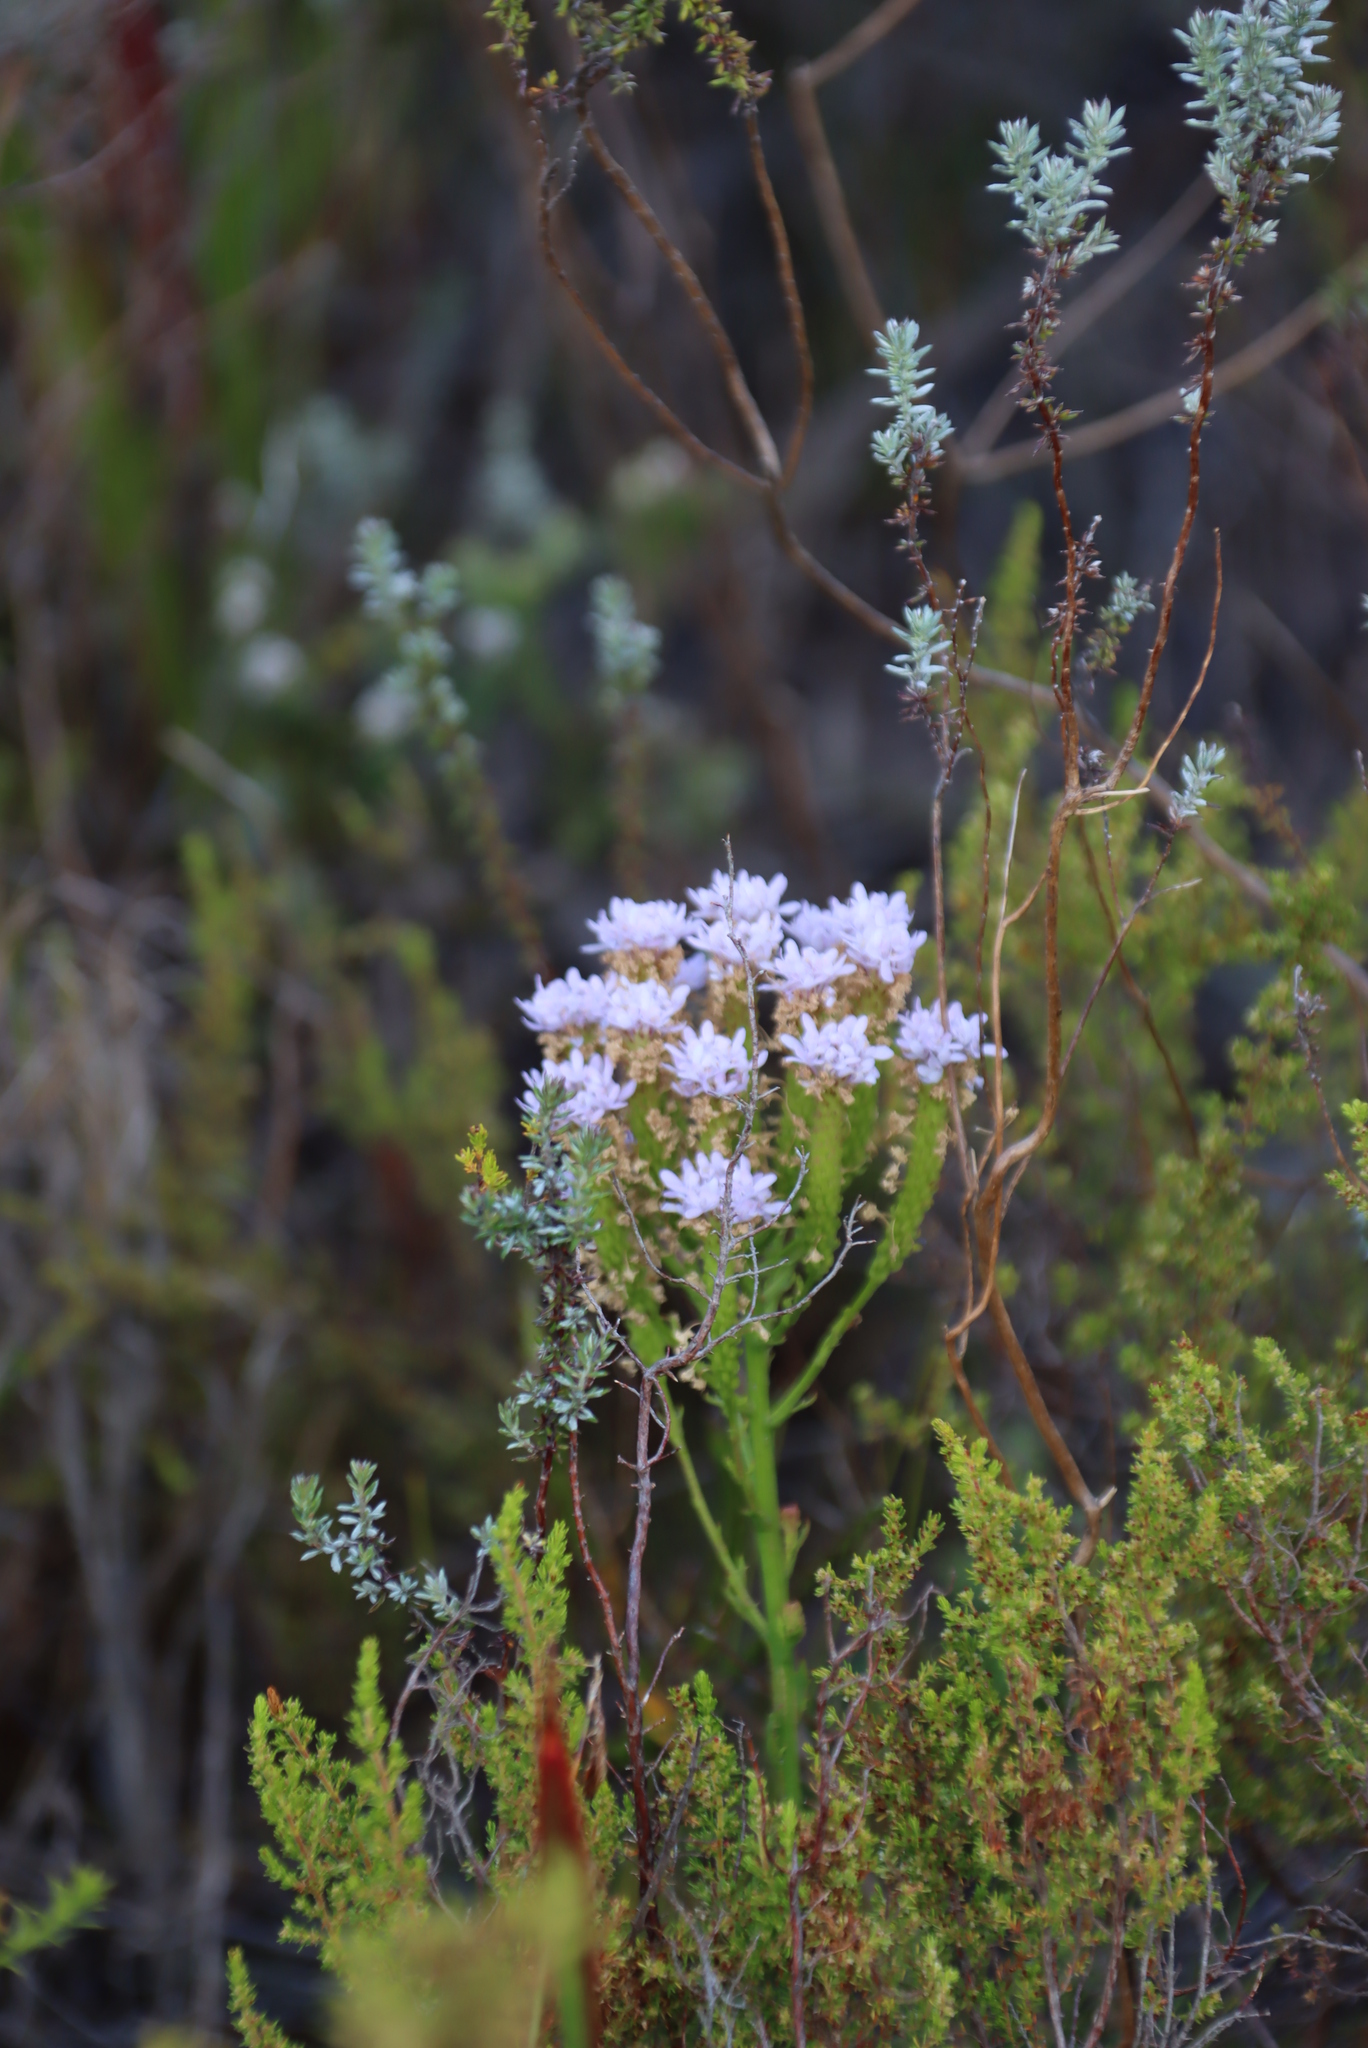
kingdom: Plantae
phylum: Tracheophyta
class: Magnoliopsida
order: Lamiales
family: Scrophulariaceae
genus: Pseudoselago
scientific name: Pseudoselago spuria
